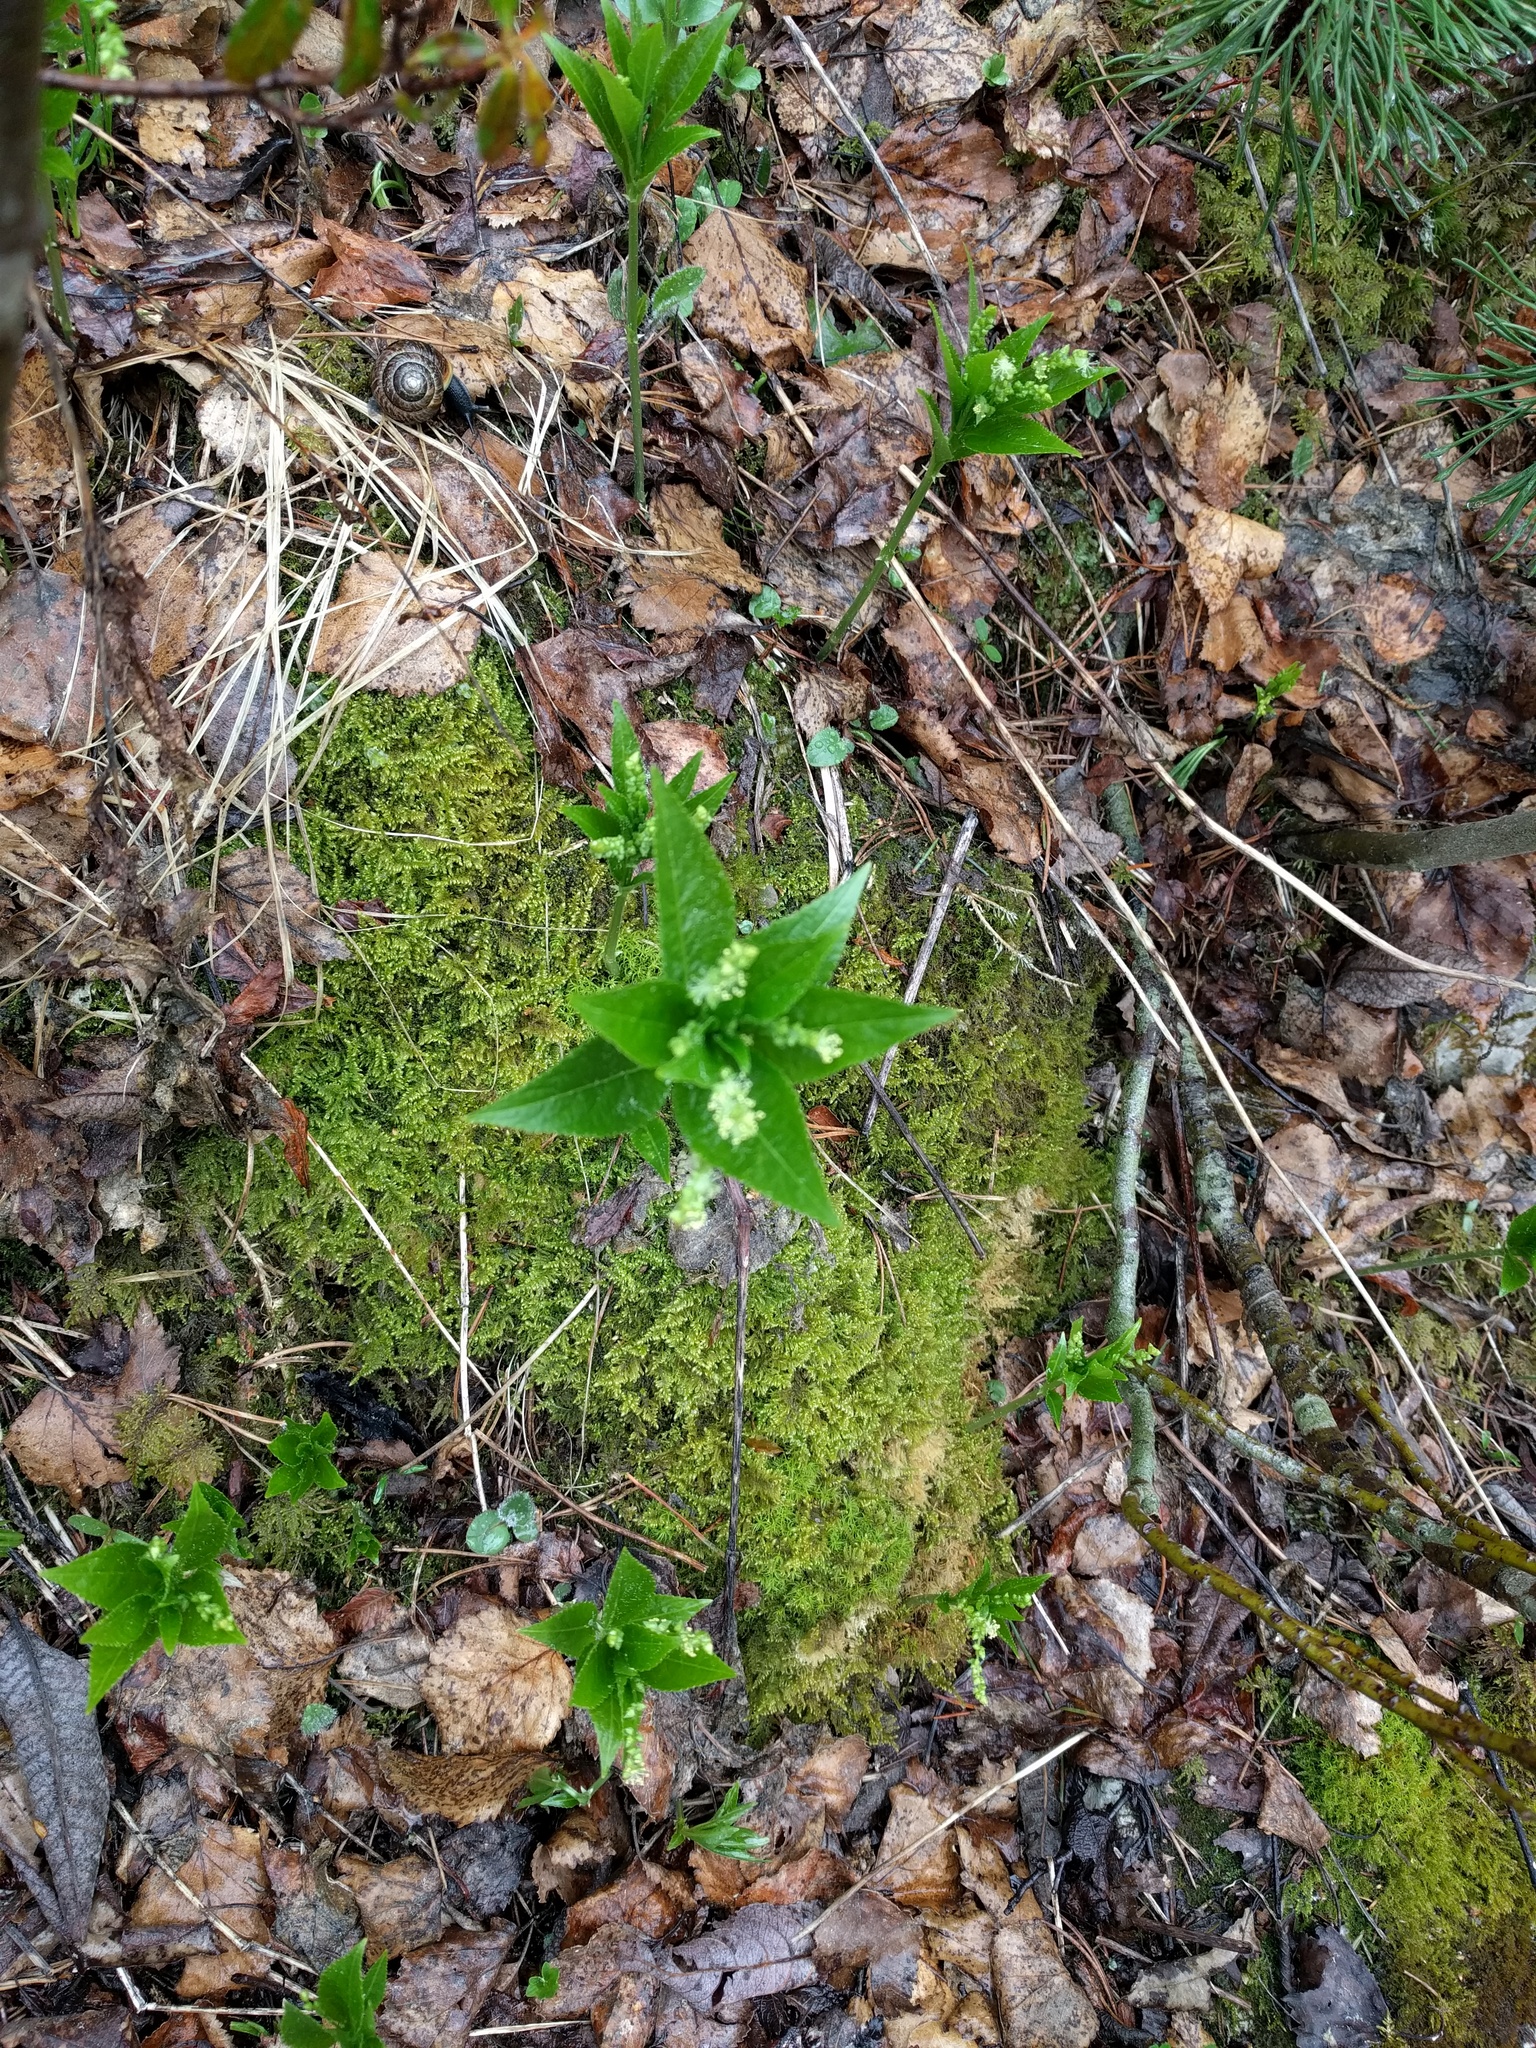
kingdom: Plantae
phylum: Tracheophyta
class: Magnoliopsida
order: Malpighiales
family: Euphorbiaceae
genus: Mercurialis
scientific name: Mercurialis perennis
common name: Dog mercury
